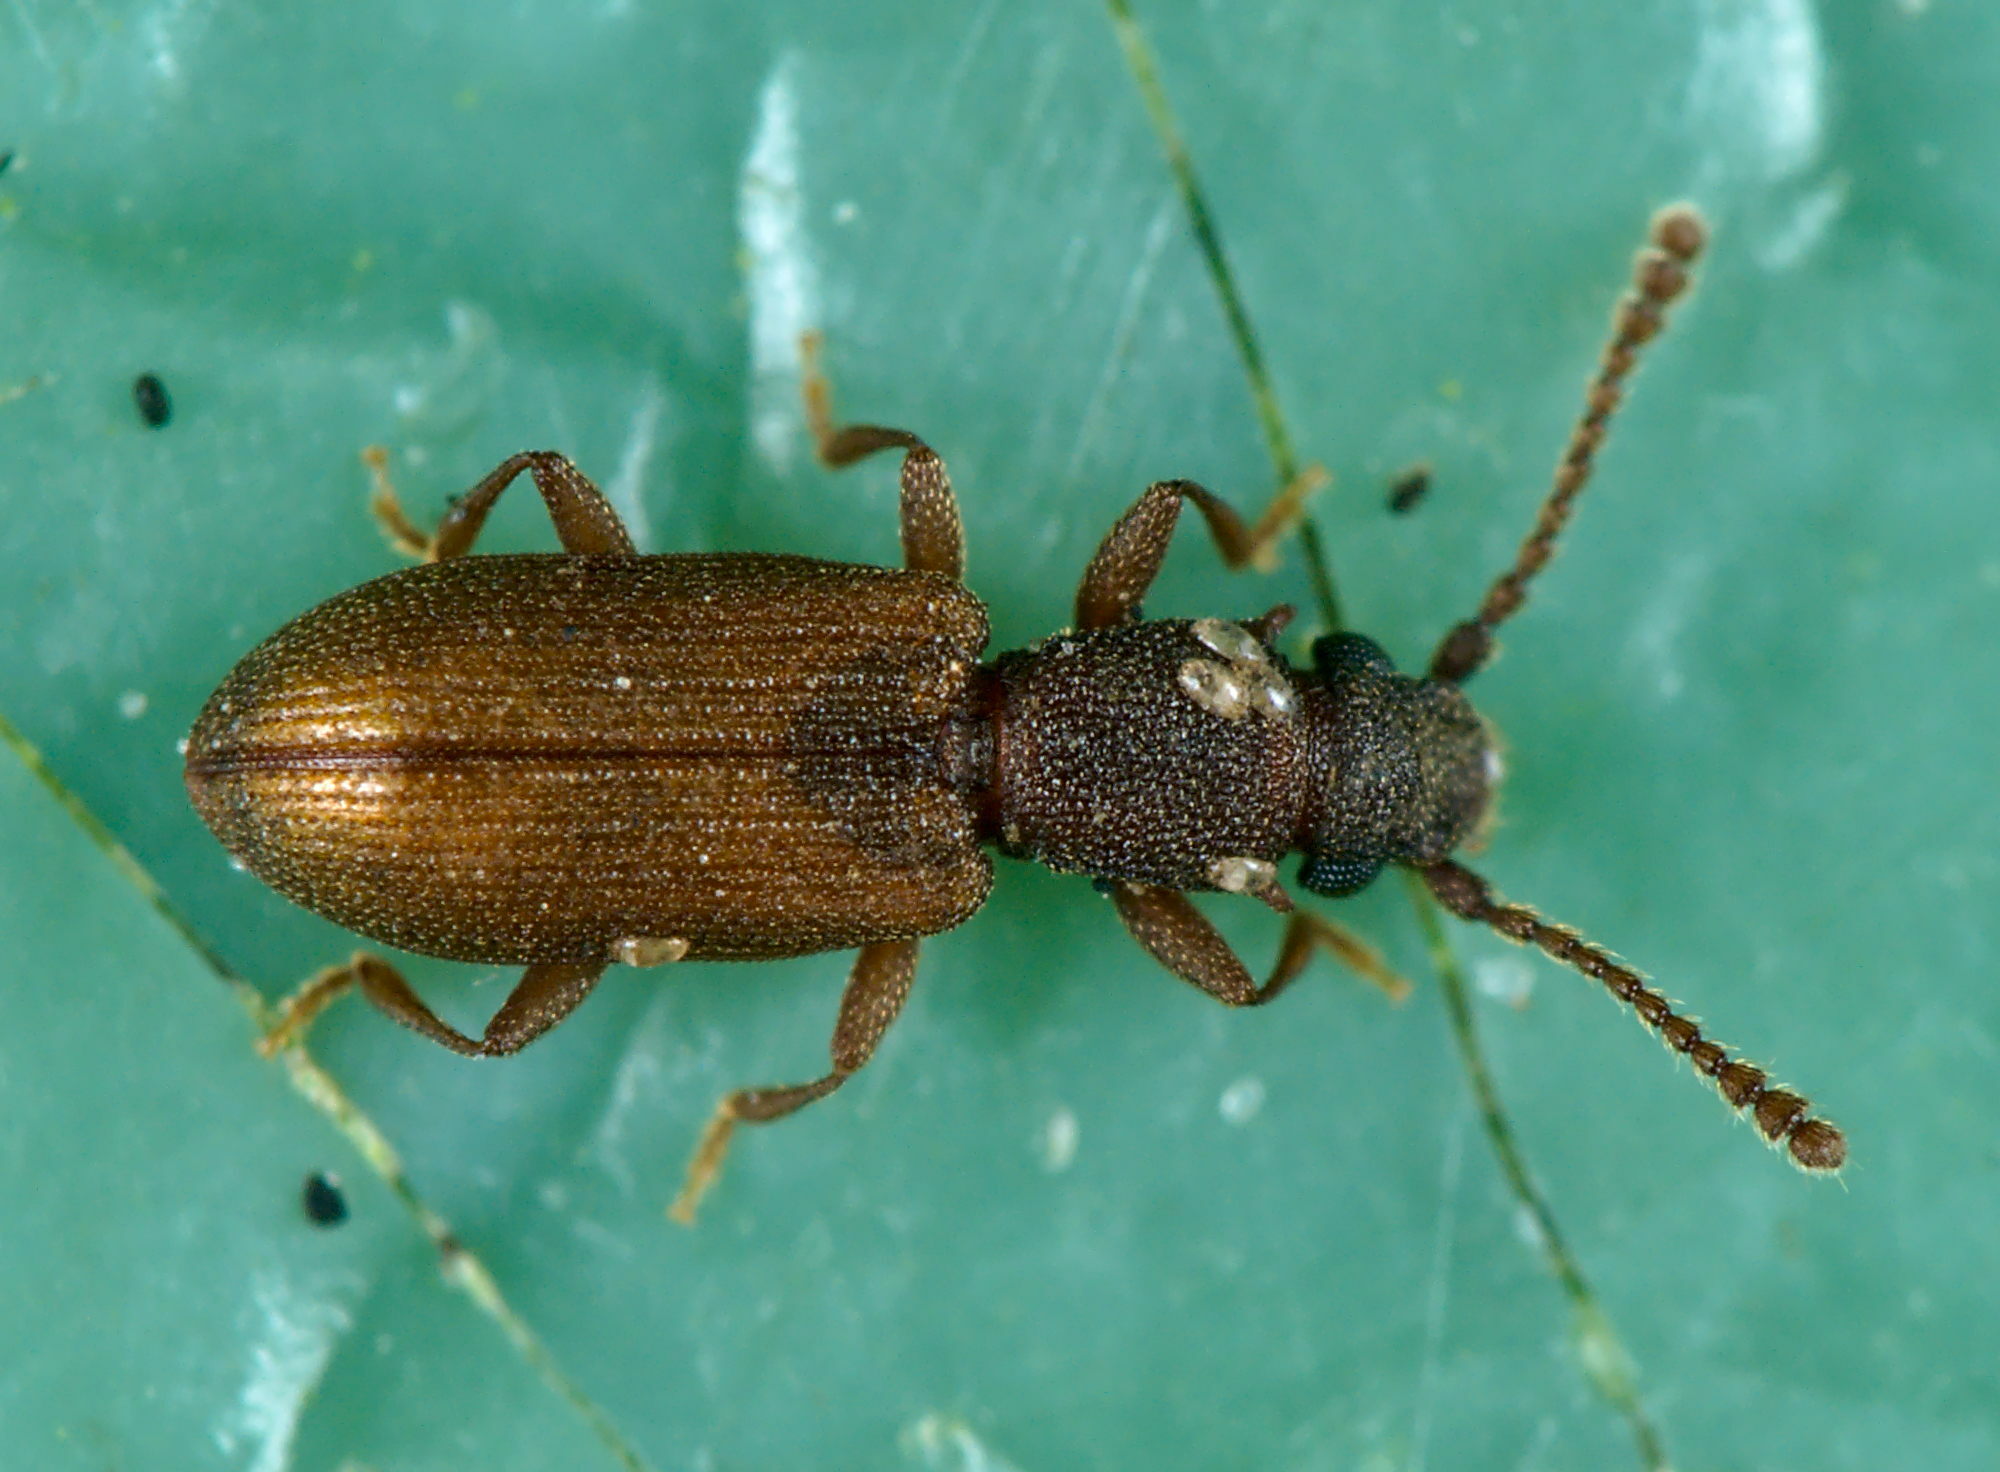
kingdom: Animalia
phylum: Arthropoda
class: Insecta
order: Coleoptera
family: Silvanidae
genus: Silvanoprus
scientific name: Silvanoprus fagi
